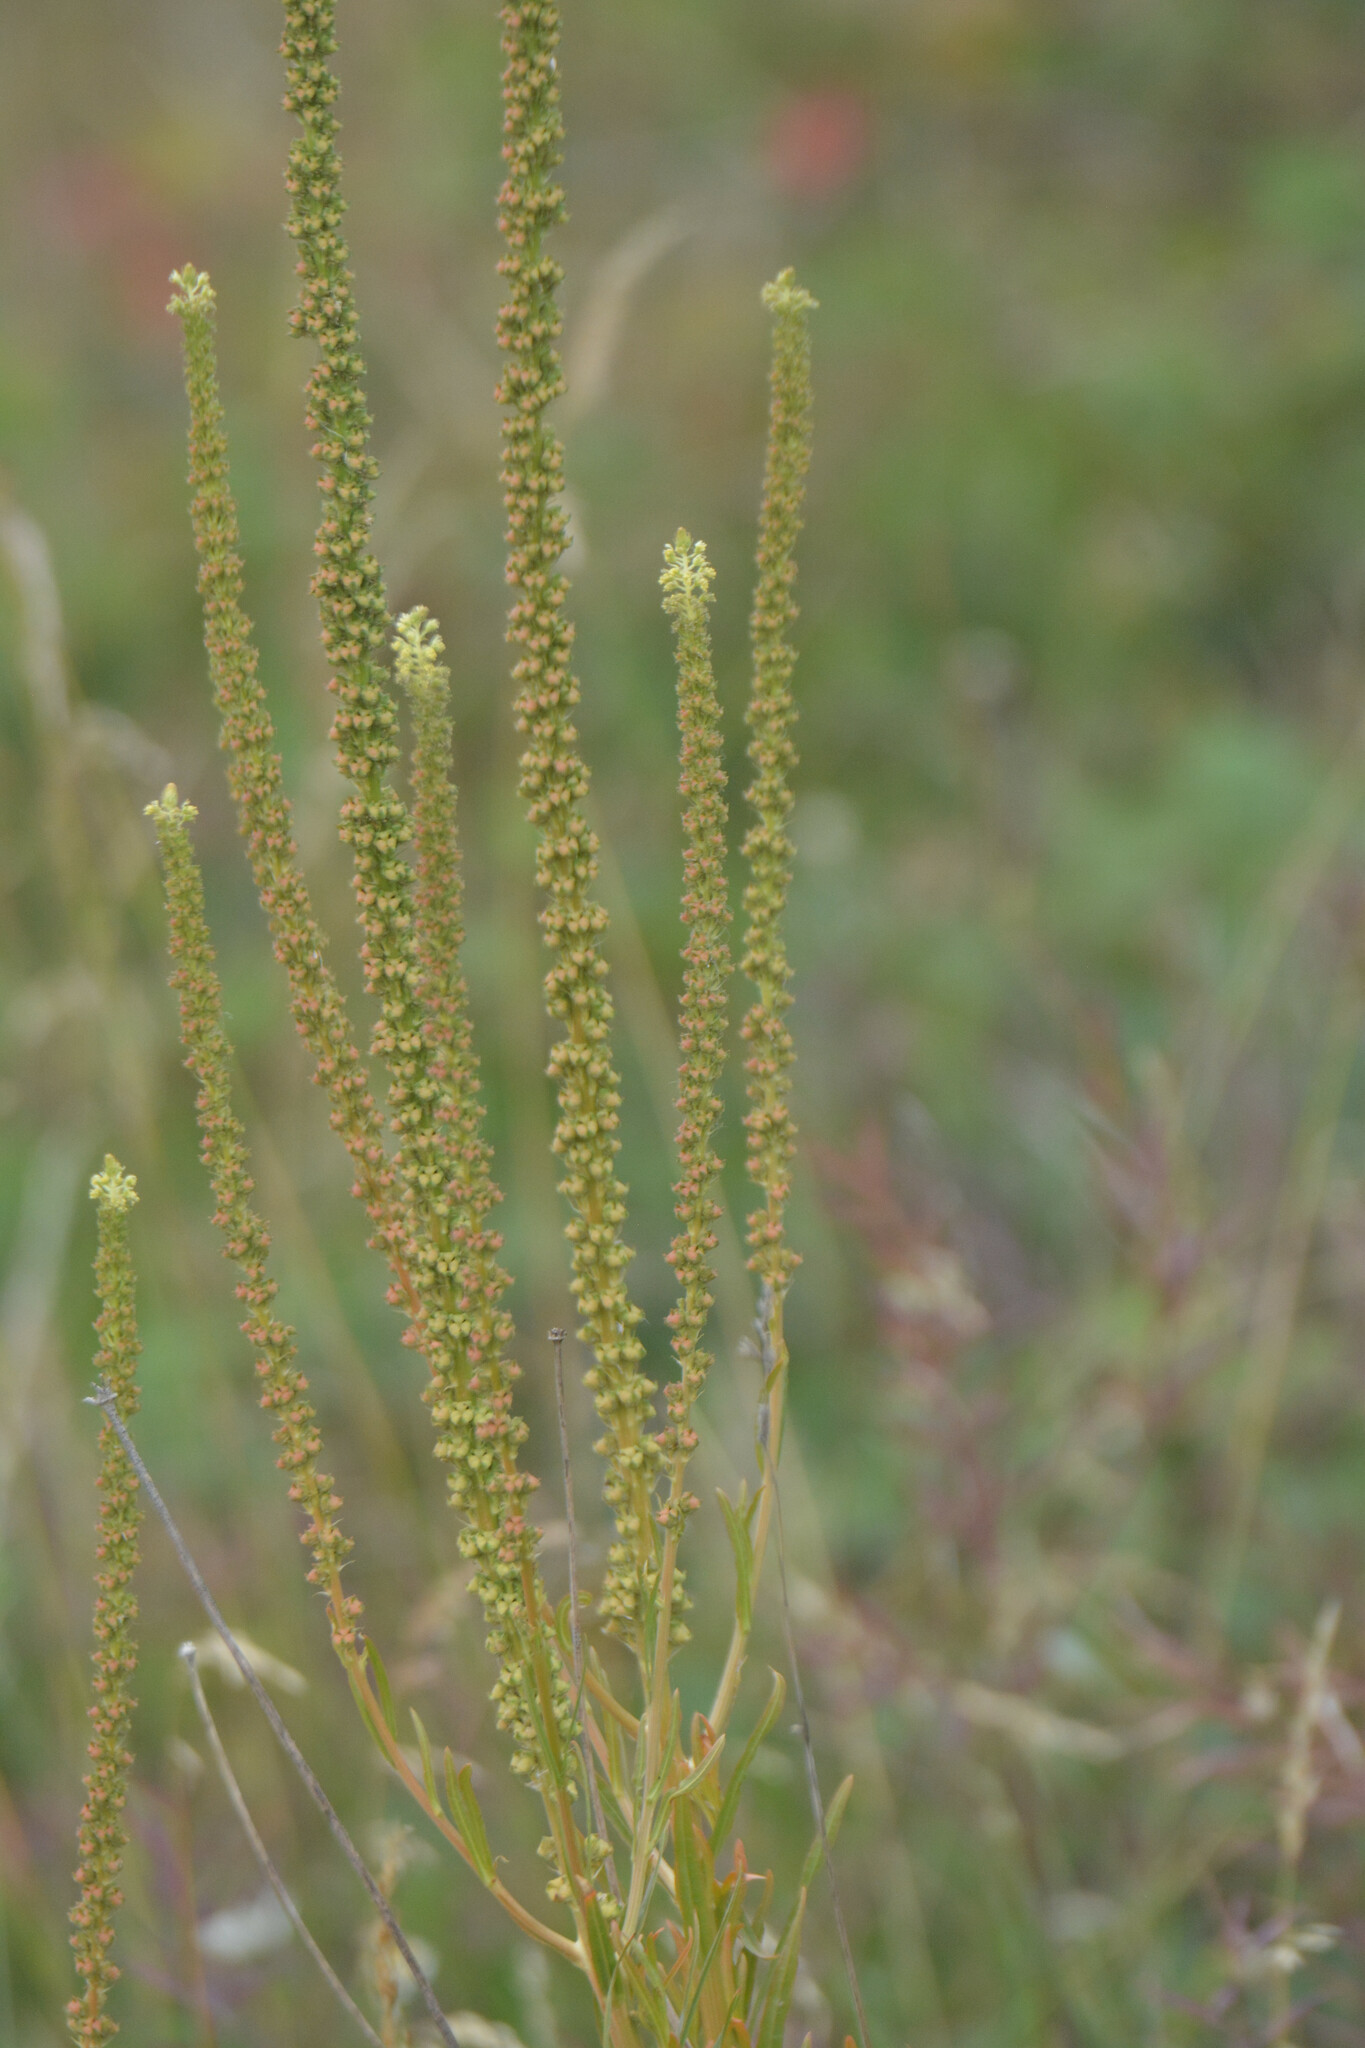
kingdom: Plantae
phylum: Tracheophyta
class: Magnoliopsida
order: Brassicales
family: Resedaceae
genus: Reseda
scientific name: Reseda luteola
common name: Weld
